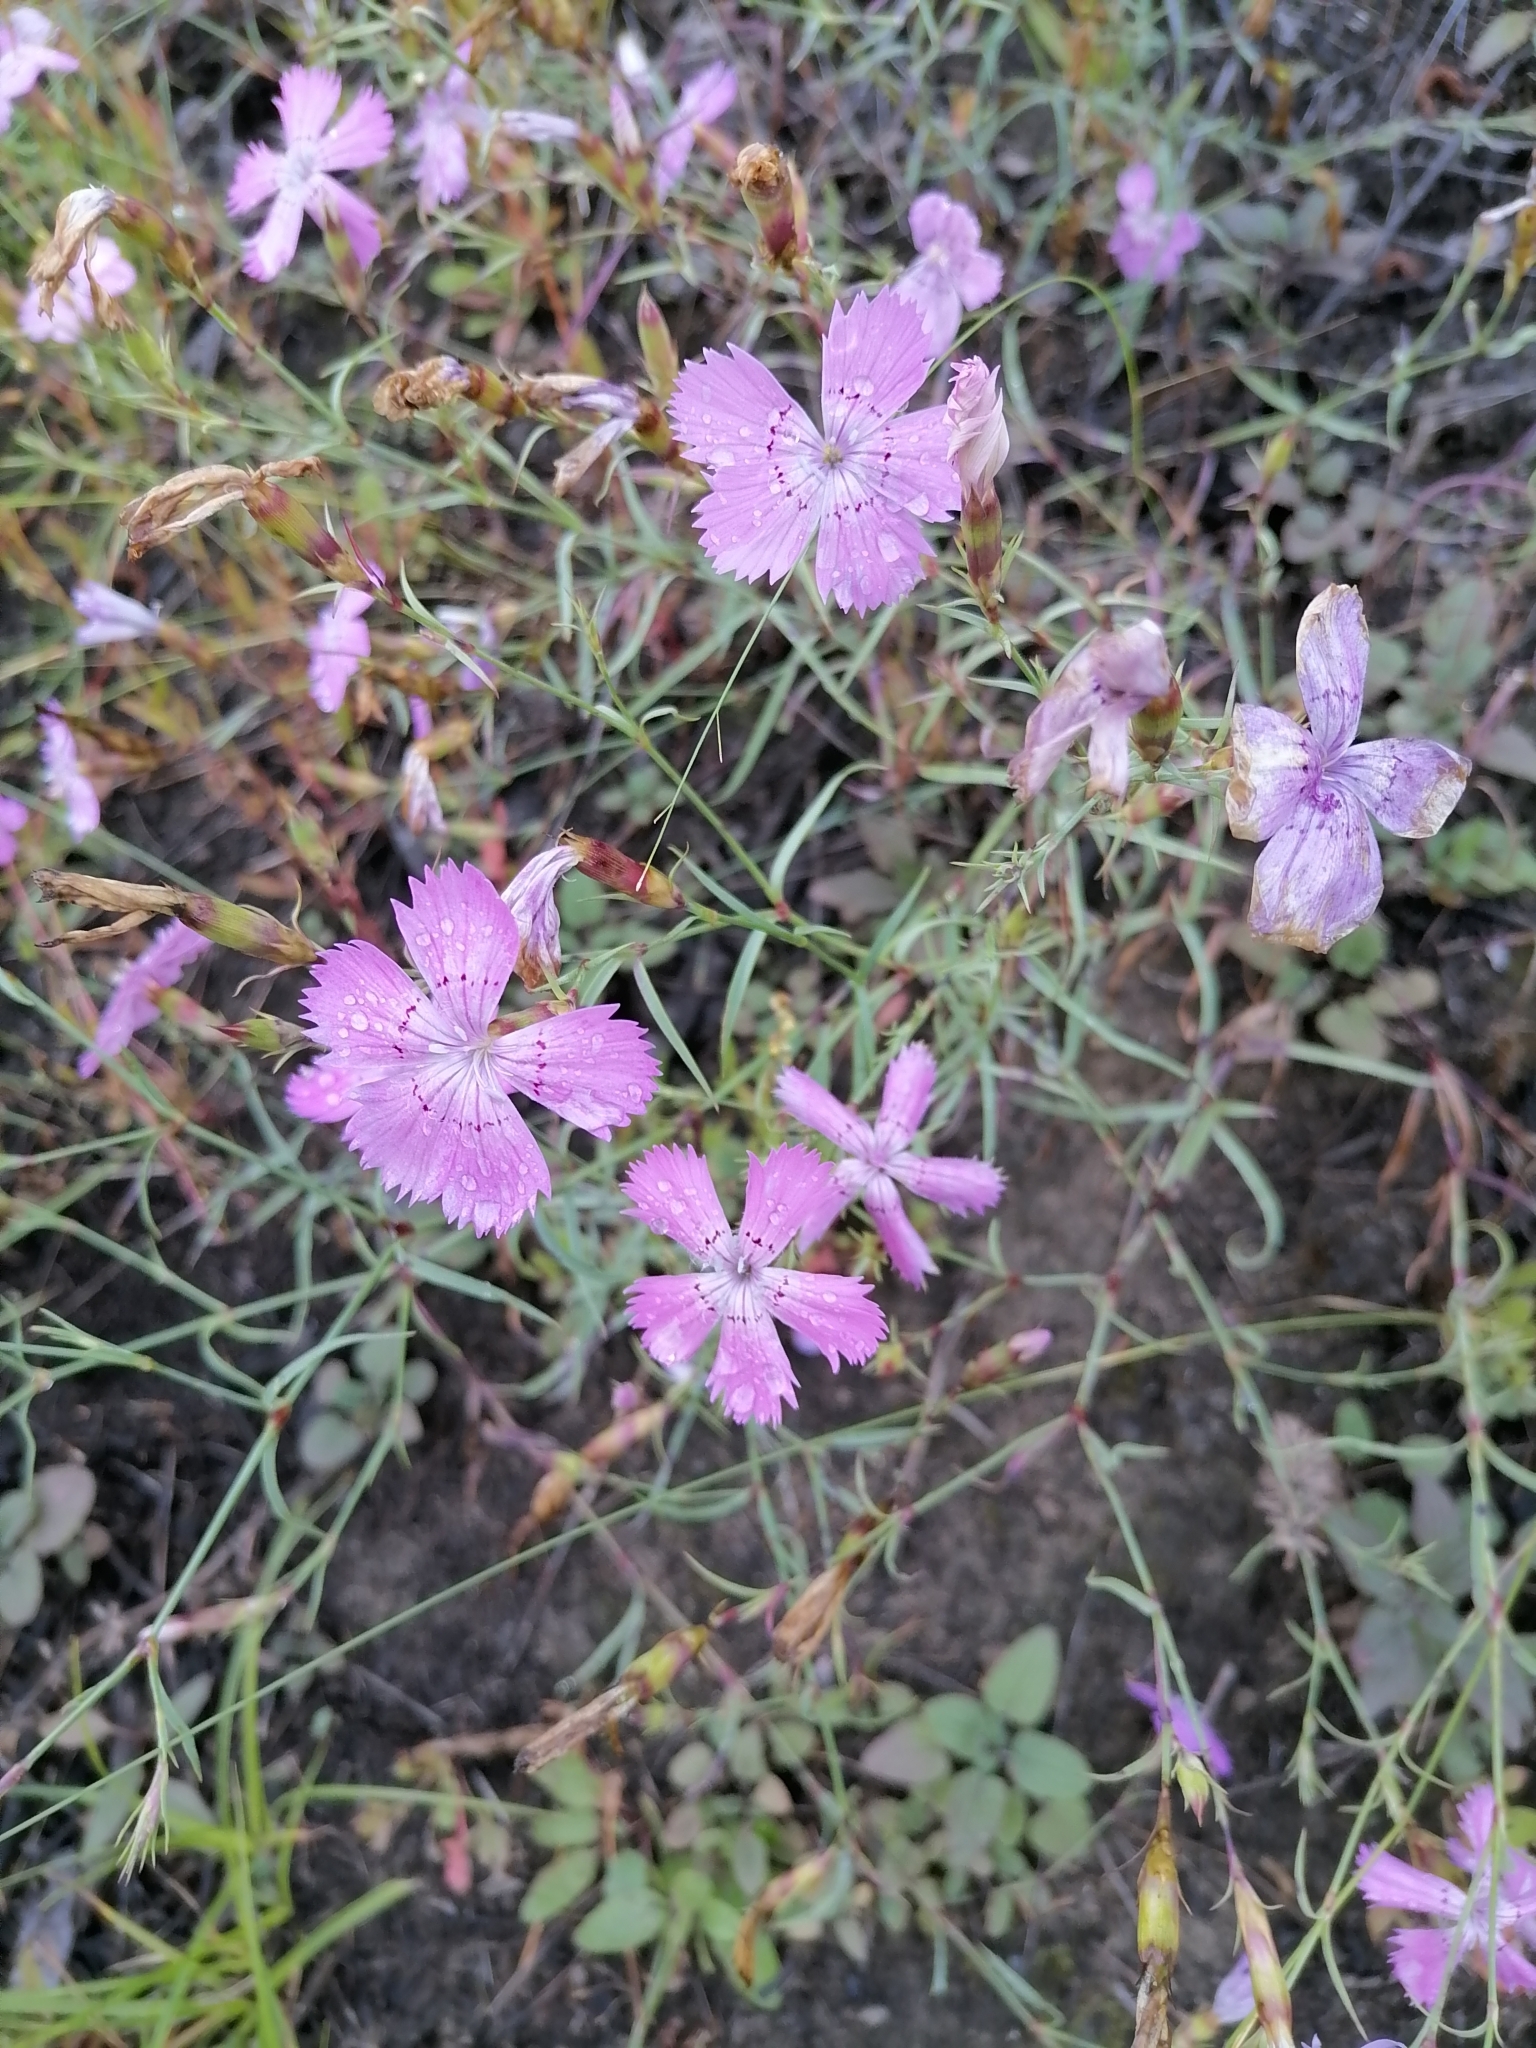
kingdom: Plantae
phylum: Tracheophyta
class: Magnoliopsida
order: Caryophyllales
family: Caryophyllaceae
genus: Dianthus
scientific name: Dianthus chinensis
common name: Rainbow pink
